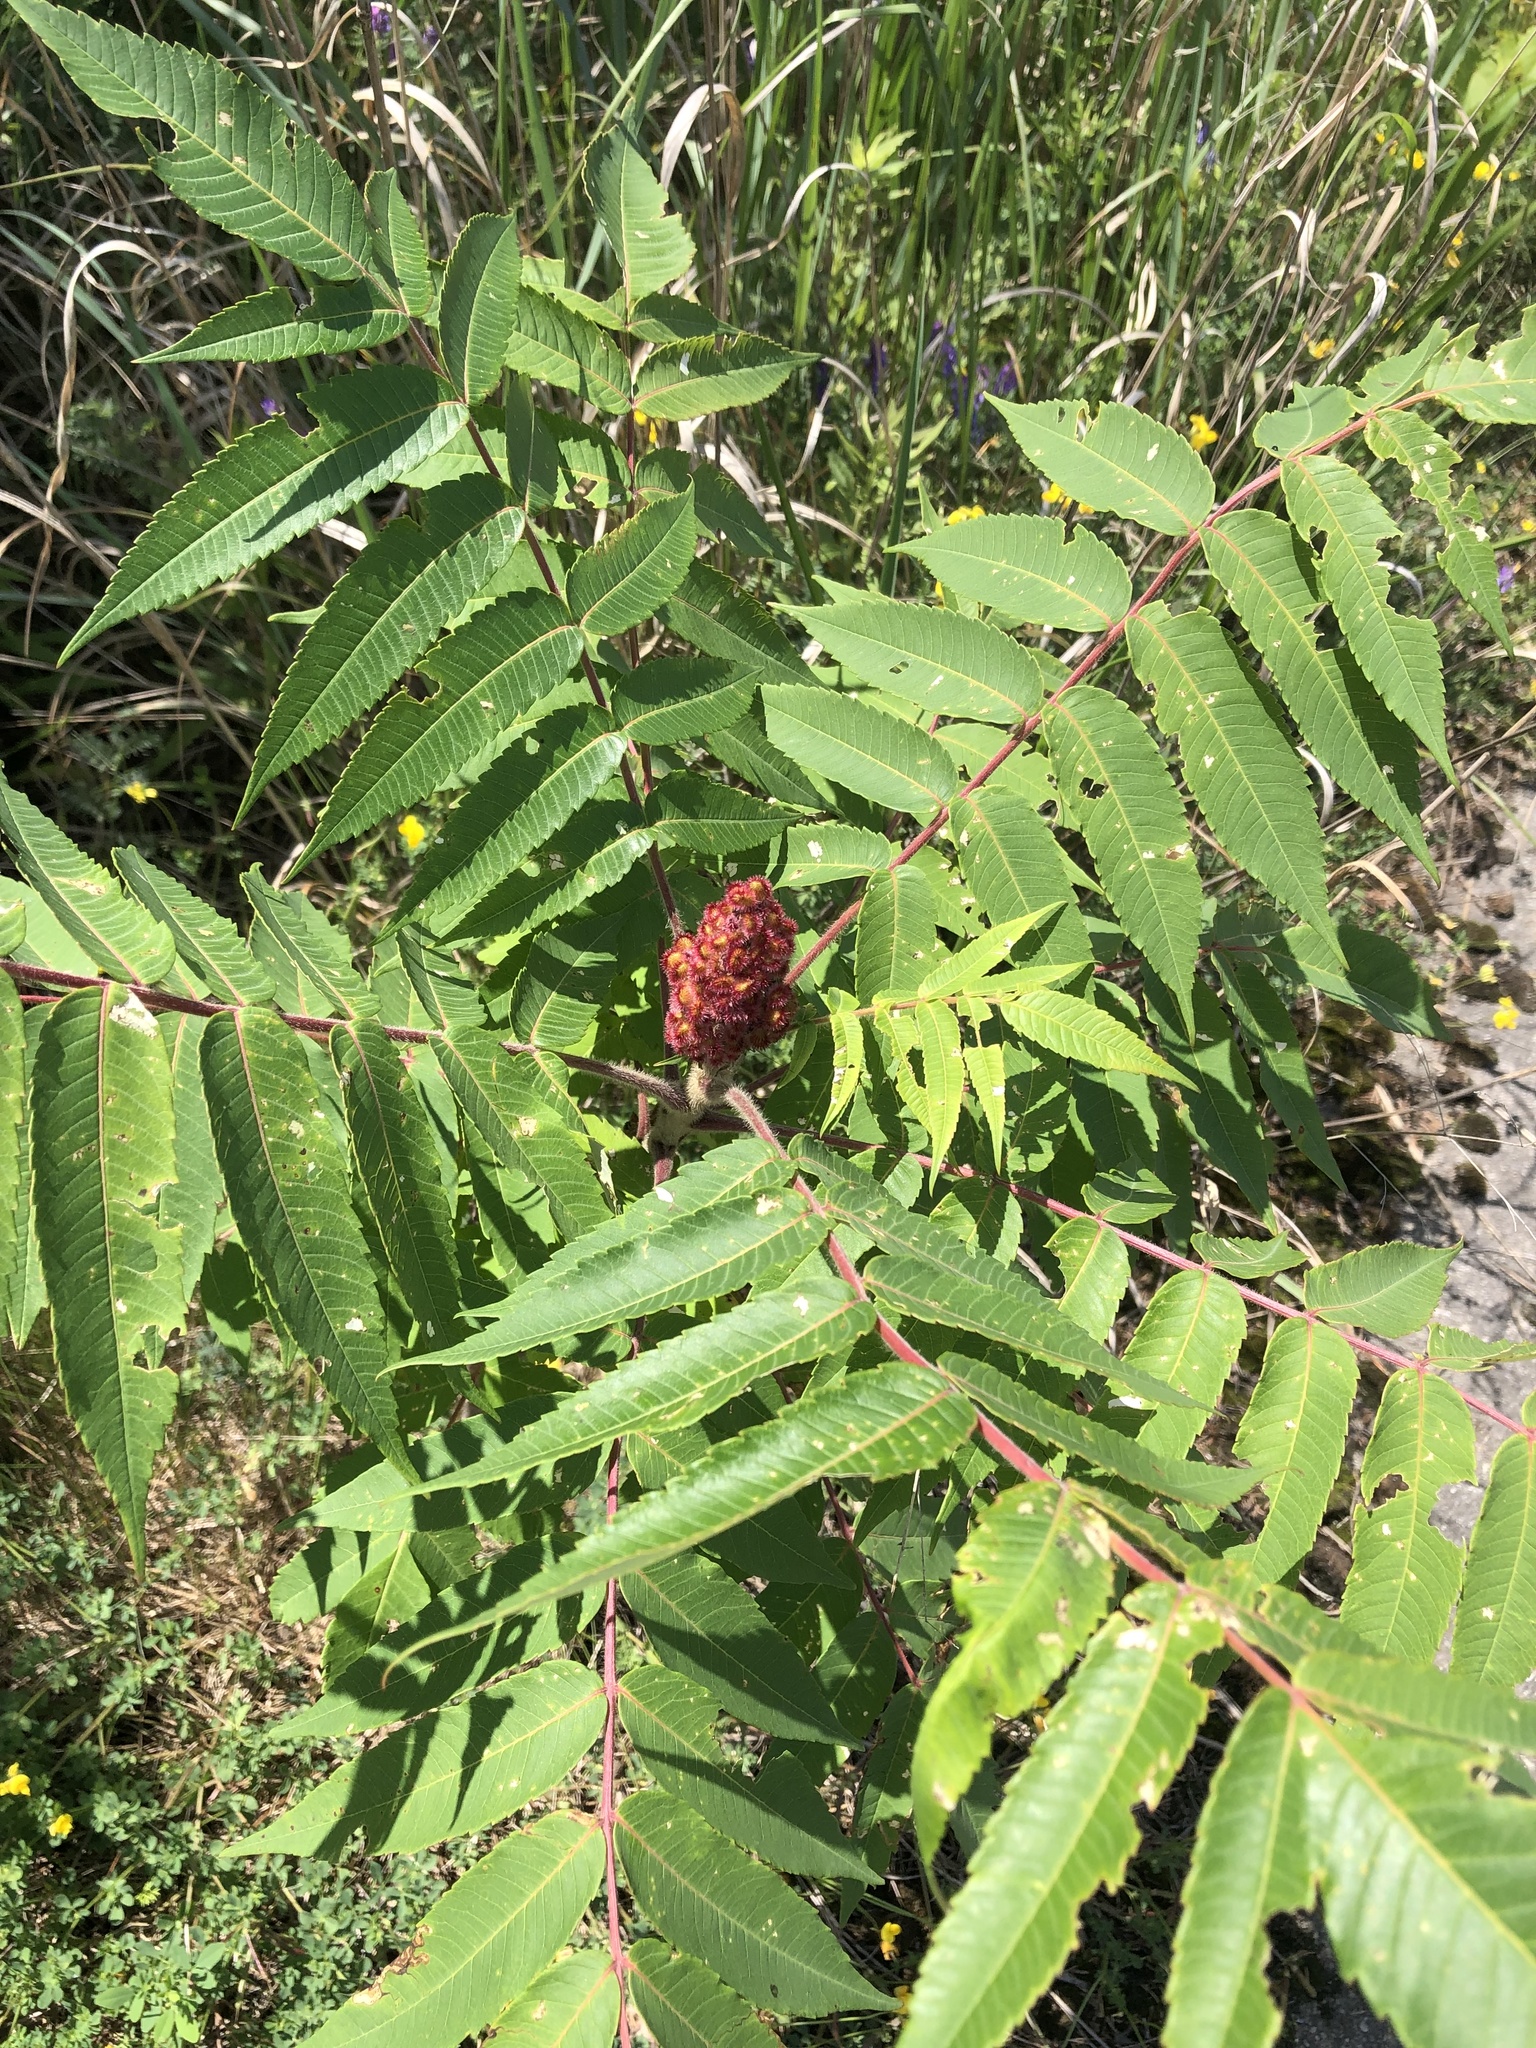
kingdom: Plantae
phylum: Tracheophyta
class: Magnoliopsida
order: Sapindales
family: Anacardiaceae
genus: Rhus
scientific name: Rhus typhina
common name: Staghorn sumac
